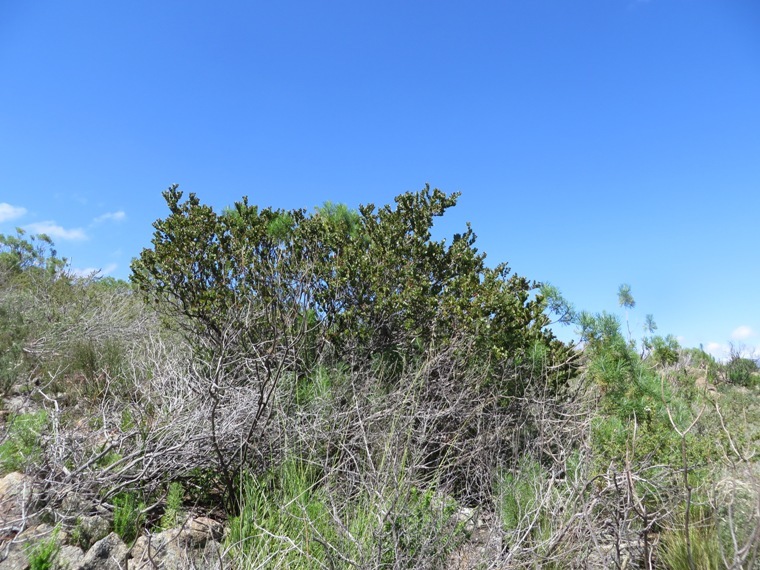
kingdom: Plantae
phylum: Tracheophyta
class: Magnoliopsida
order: Santalales
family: Santalaceae
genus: Osyris
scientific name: Osyris compressa
